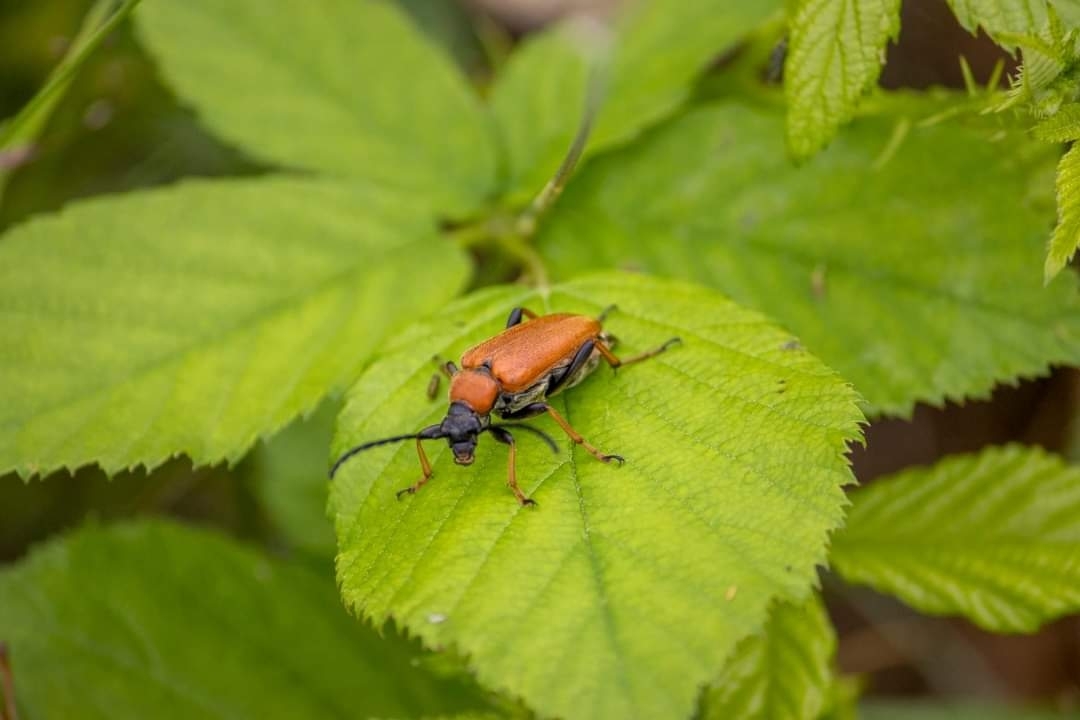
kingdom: Animalia
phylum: Arthropoda
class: Insecta
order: Coleoptera
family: Cerambycidae
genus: Stictoleptura
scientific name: Stictoleptura rubra
